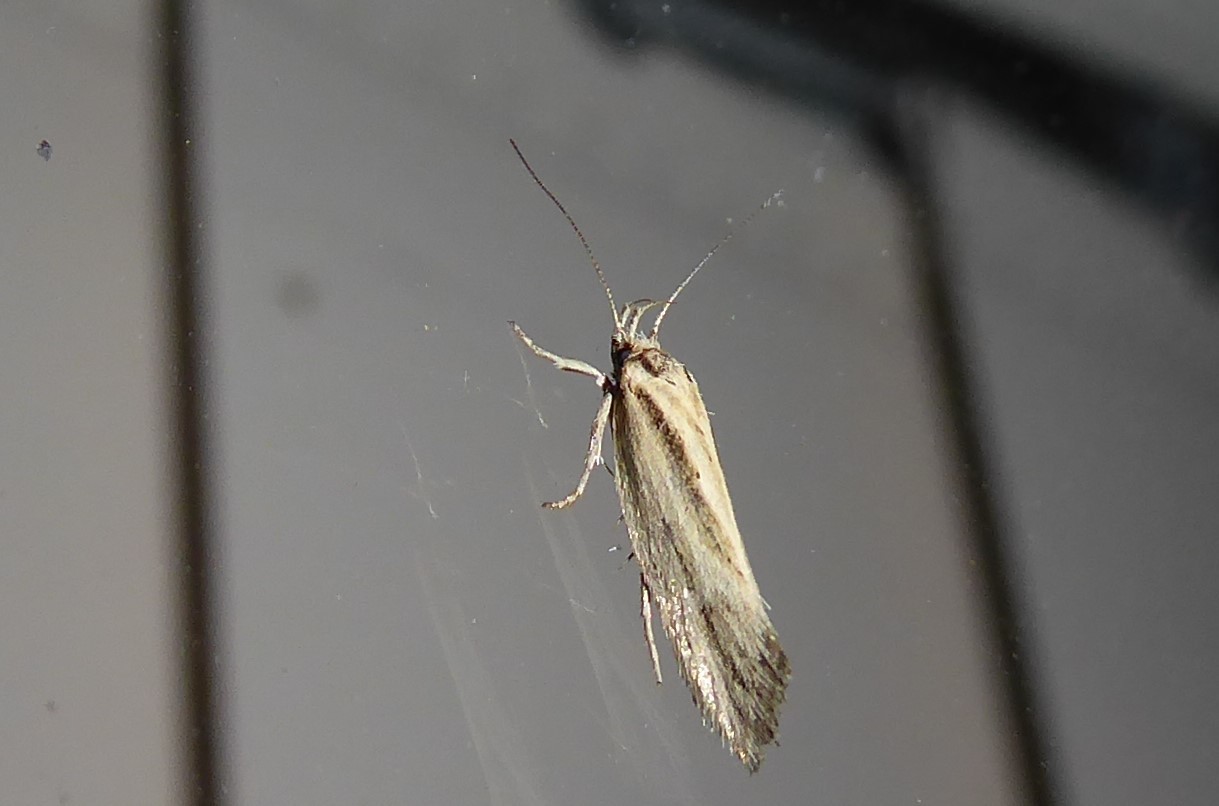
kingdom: Animalia
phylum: Arthropoda
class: Insecta
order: Lepidoptera
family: Oecophoridae
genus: Tingena
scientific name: Tingena chloradelpha
